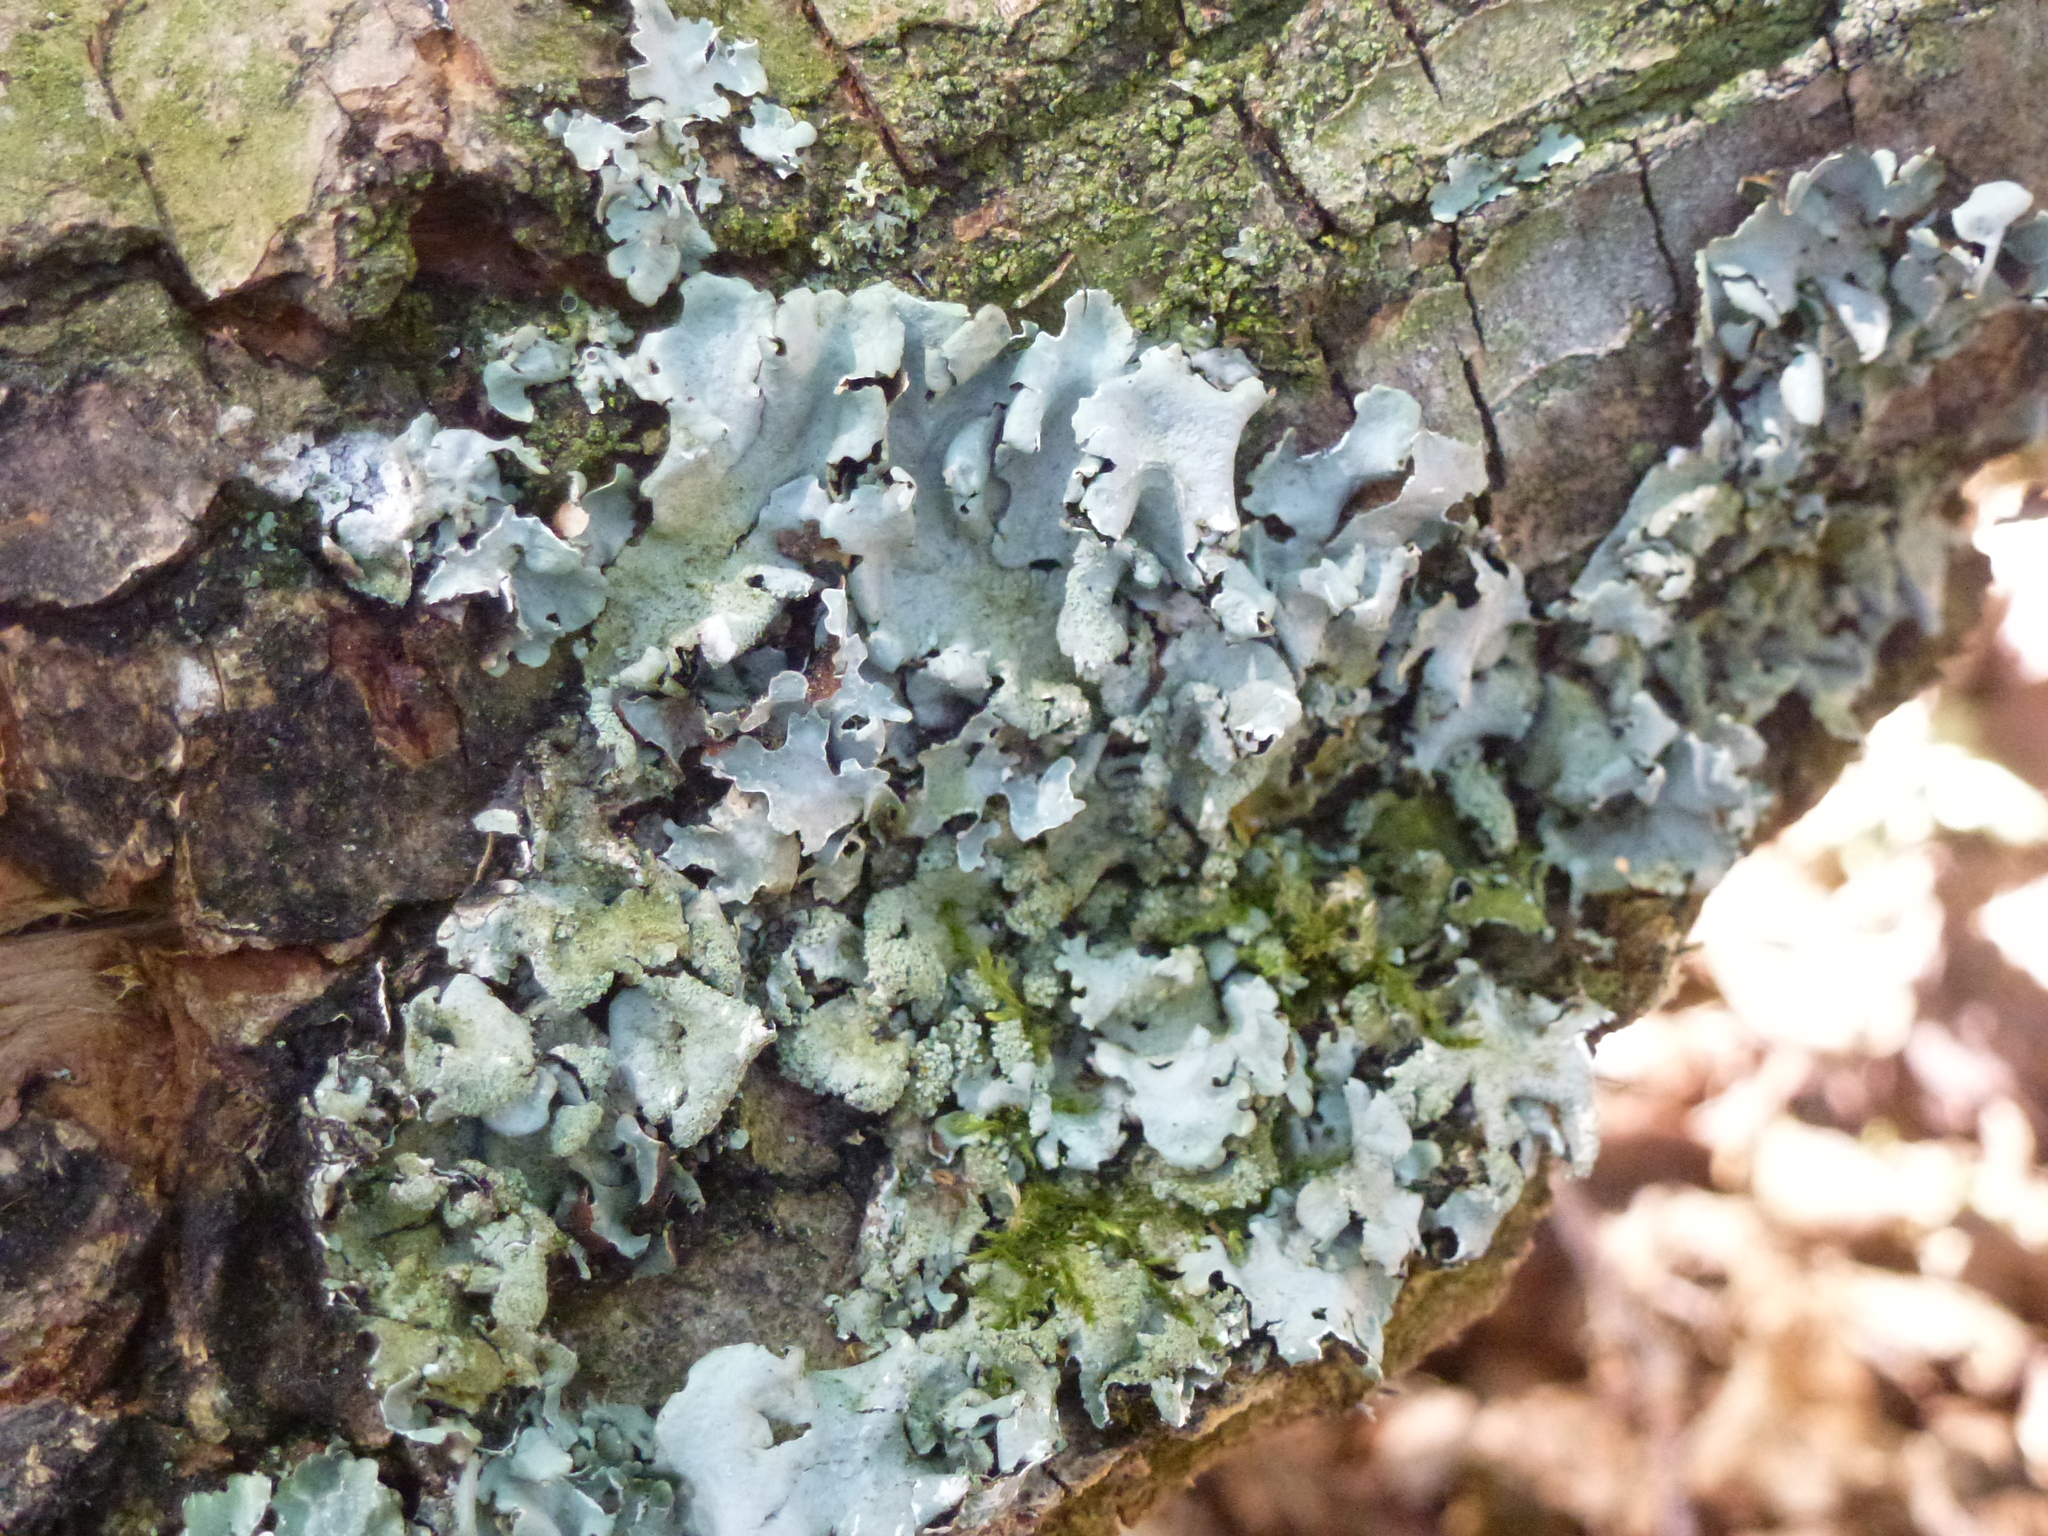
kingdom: Fungi
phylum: Ascomycota
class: Lecanoromycetes
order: Lecanorales
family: Parmeliaceae
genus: Parmelia
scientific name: Parmelia sulcata
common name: Netted shield lichen
